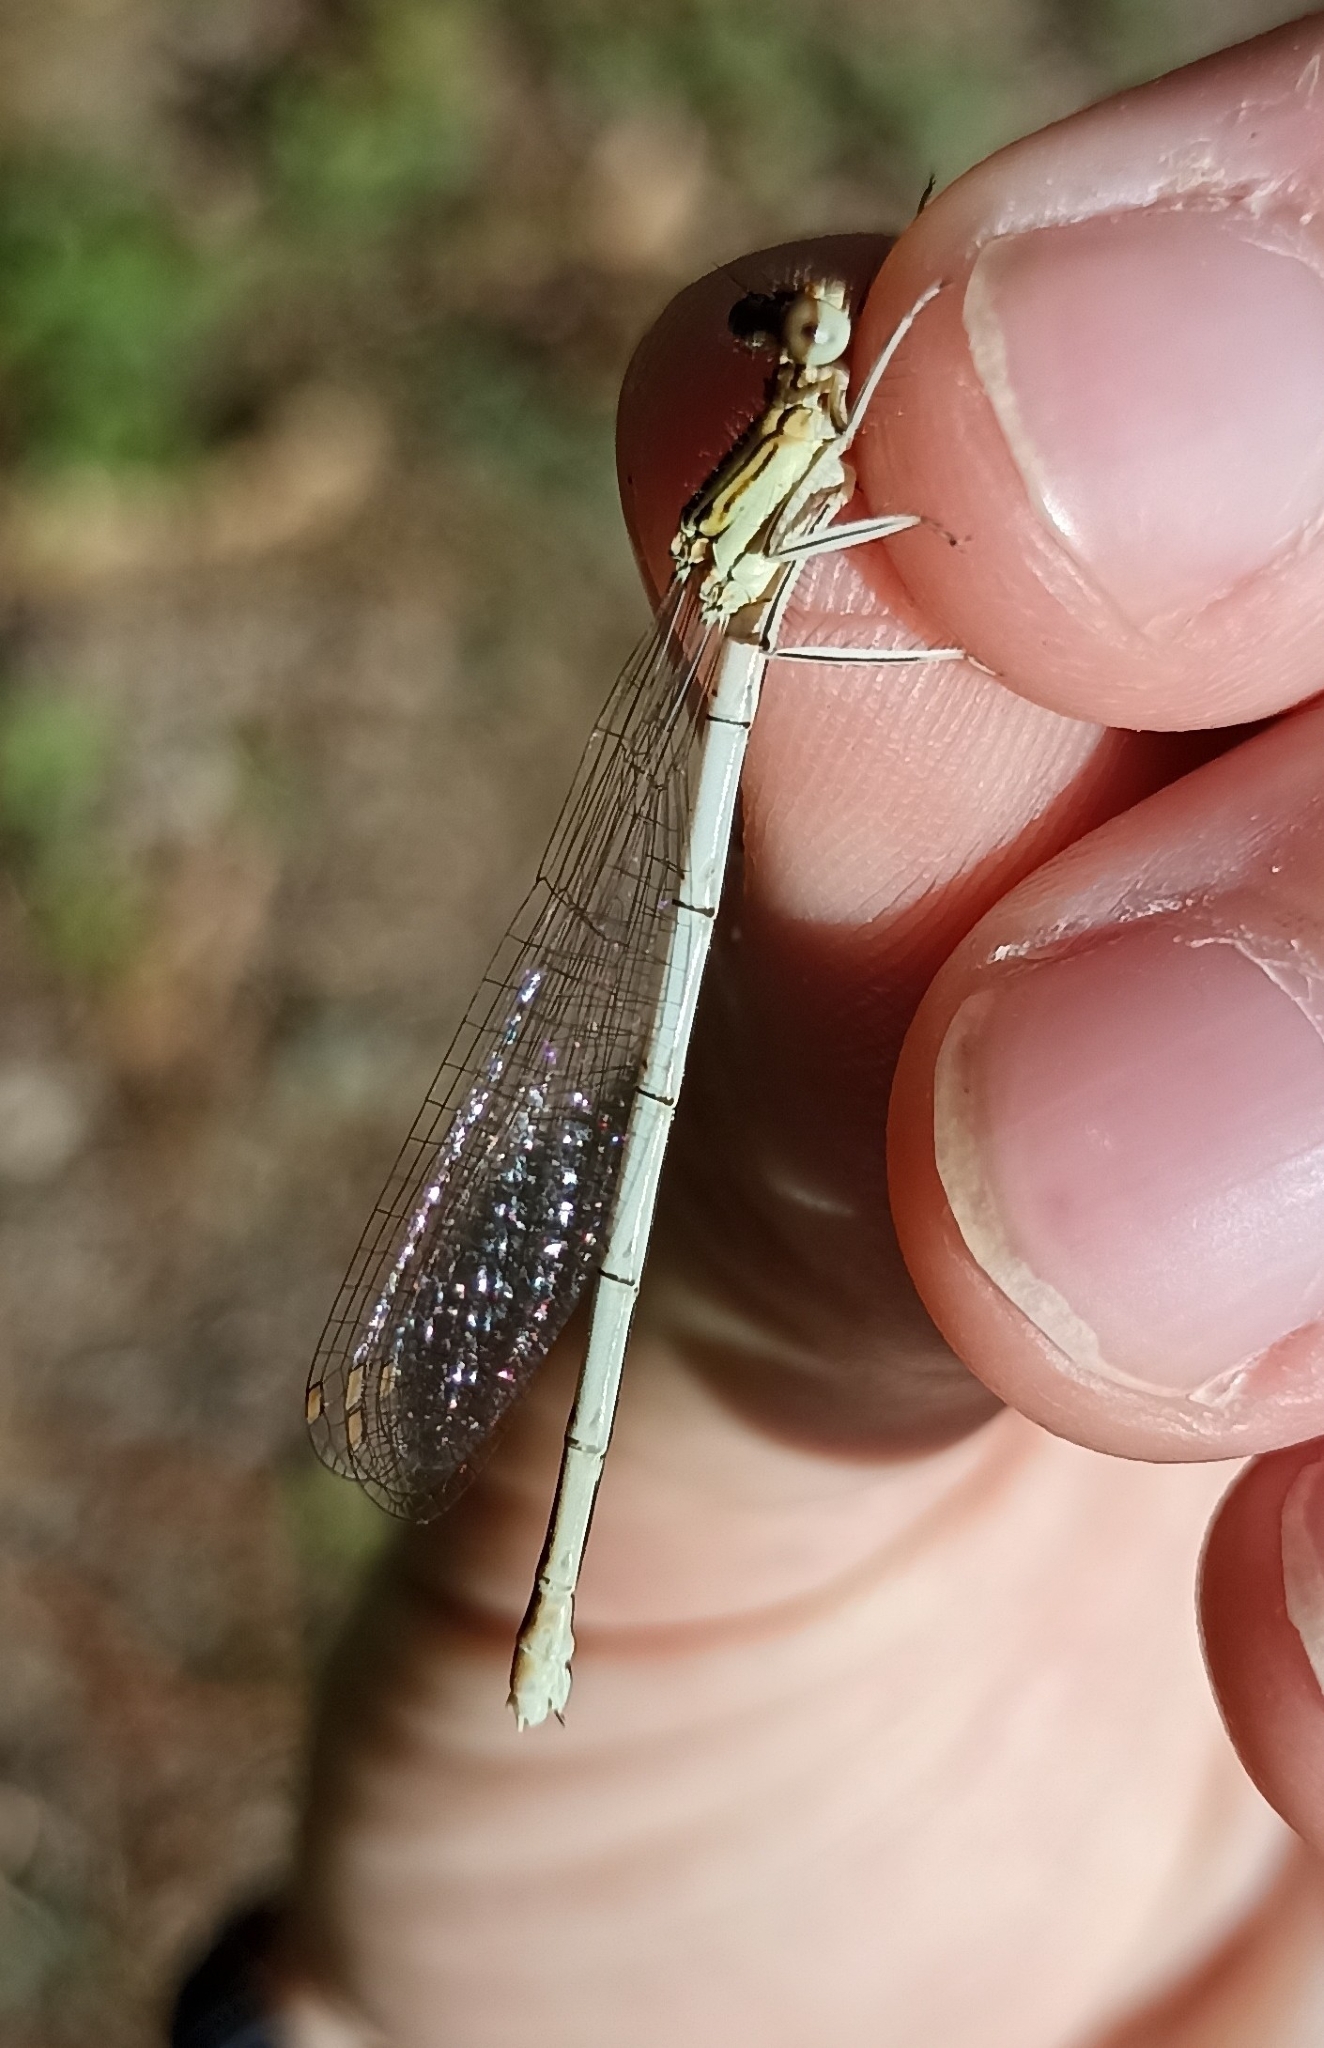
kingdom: Animalia
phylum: Arthropoda
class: Insecta
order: Odonata
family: Platycnemididae
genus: Platycnemis
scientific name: Platycnemis pennipes
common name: White-legged damselfly
